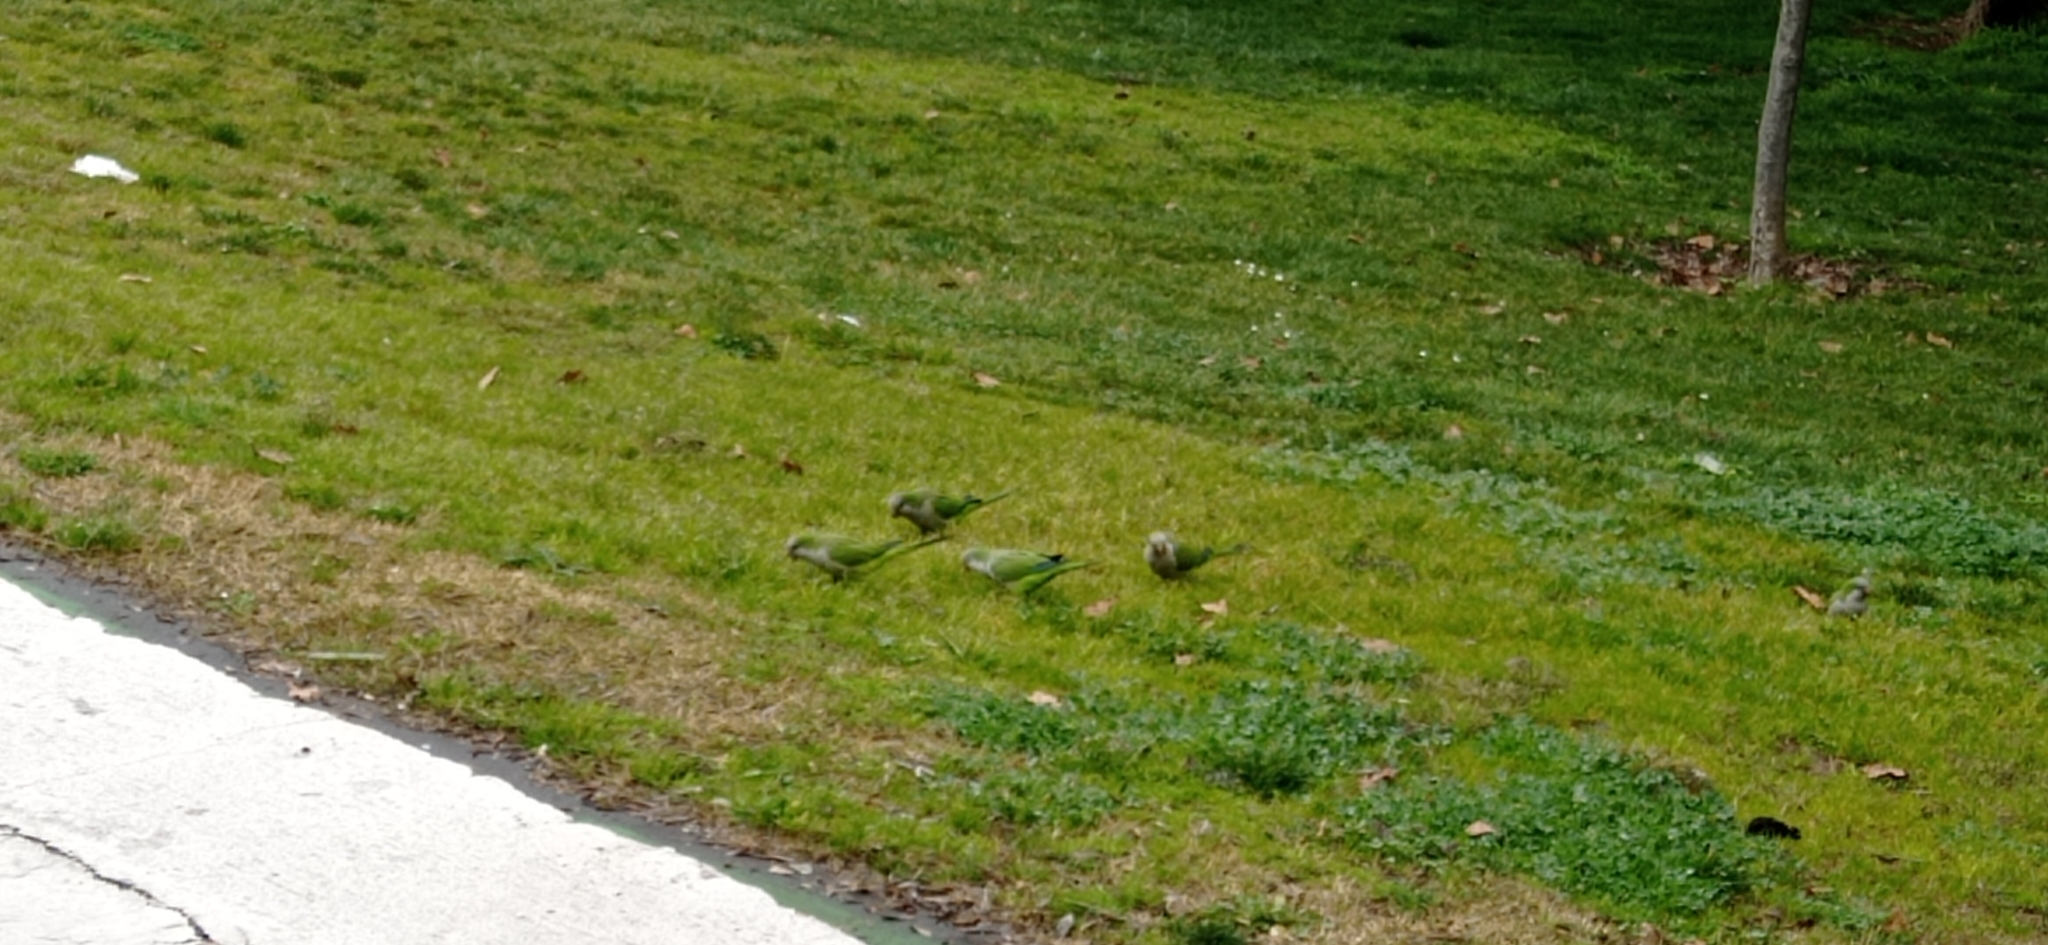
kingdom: Animalia
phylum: Chordata
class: Aves
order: Psittaciformes
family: Psittacidae
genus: Myiopsitta
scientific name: Myiopsitta monachus
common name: Monk parakeet
